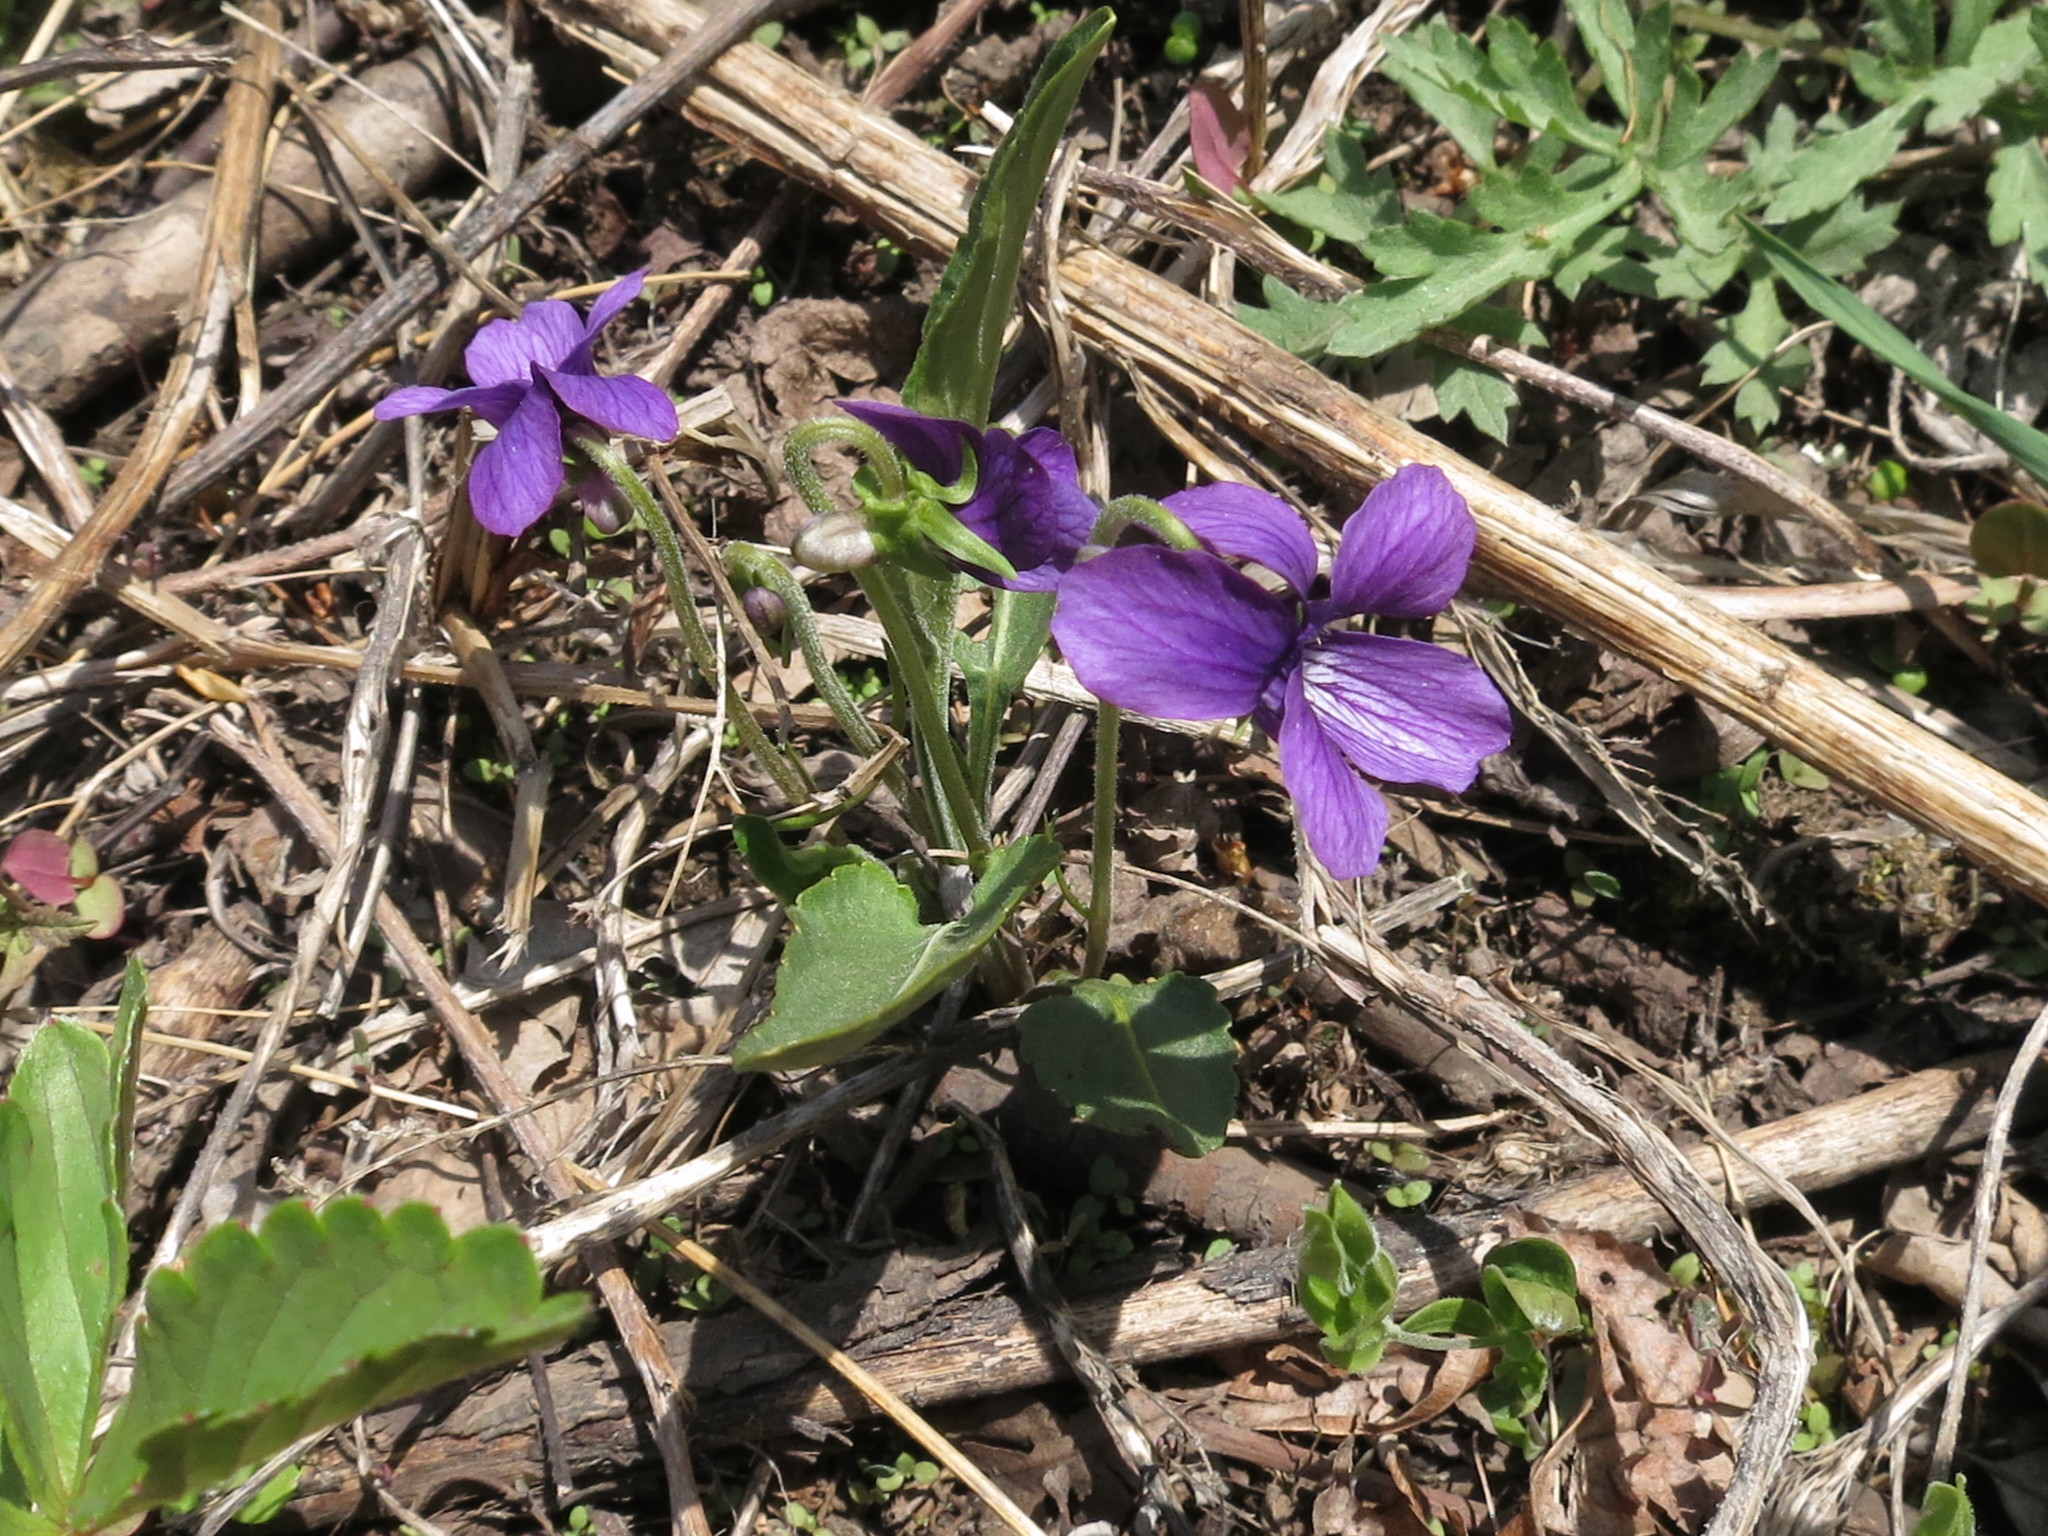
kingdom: Plantae
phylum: Tracheophyta
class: Magnoliopsida
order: Malpighiales
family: Violaceae
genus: Viola
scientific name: Viola mandshurica
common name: Manchuria violet
